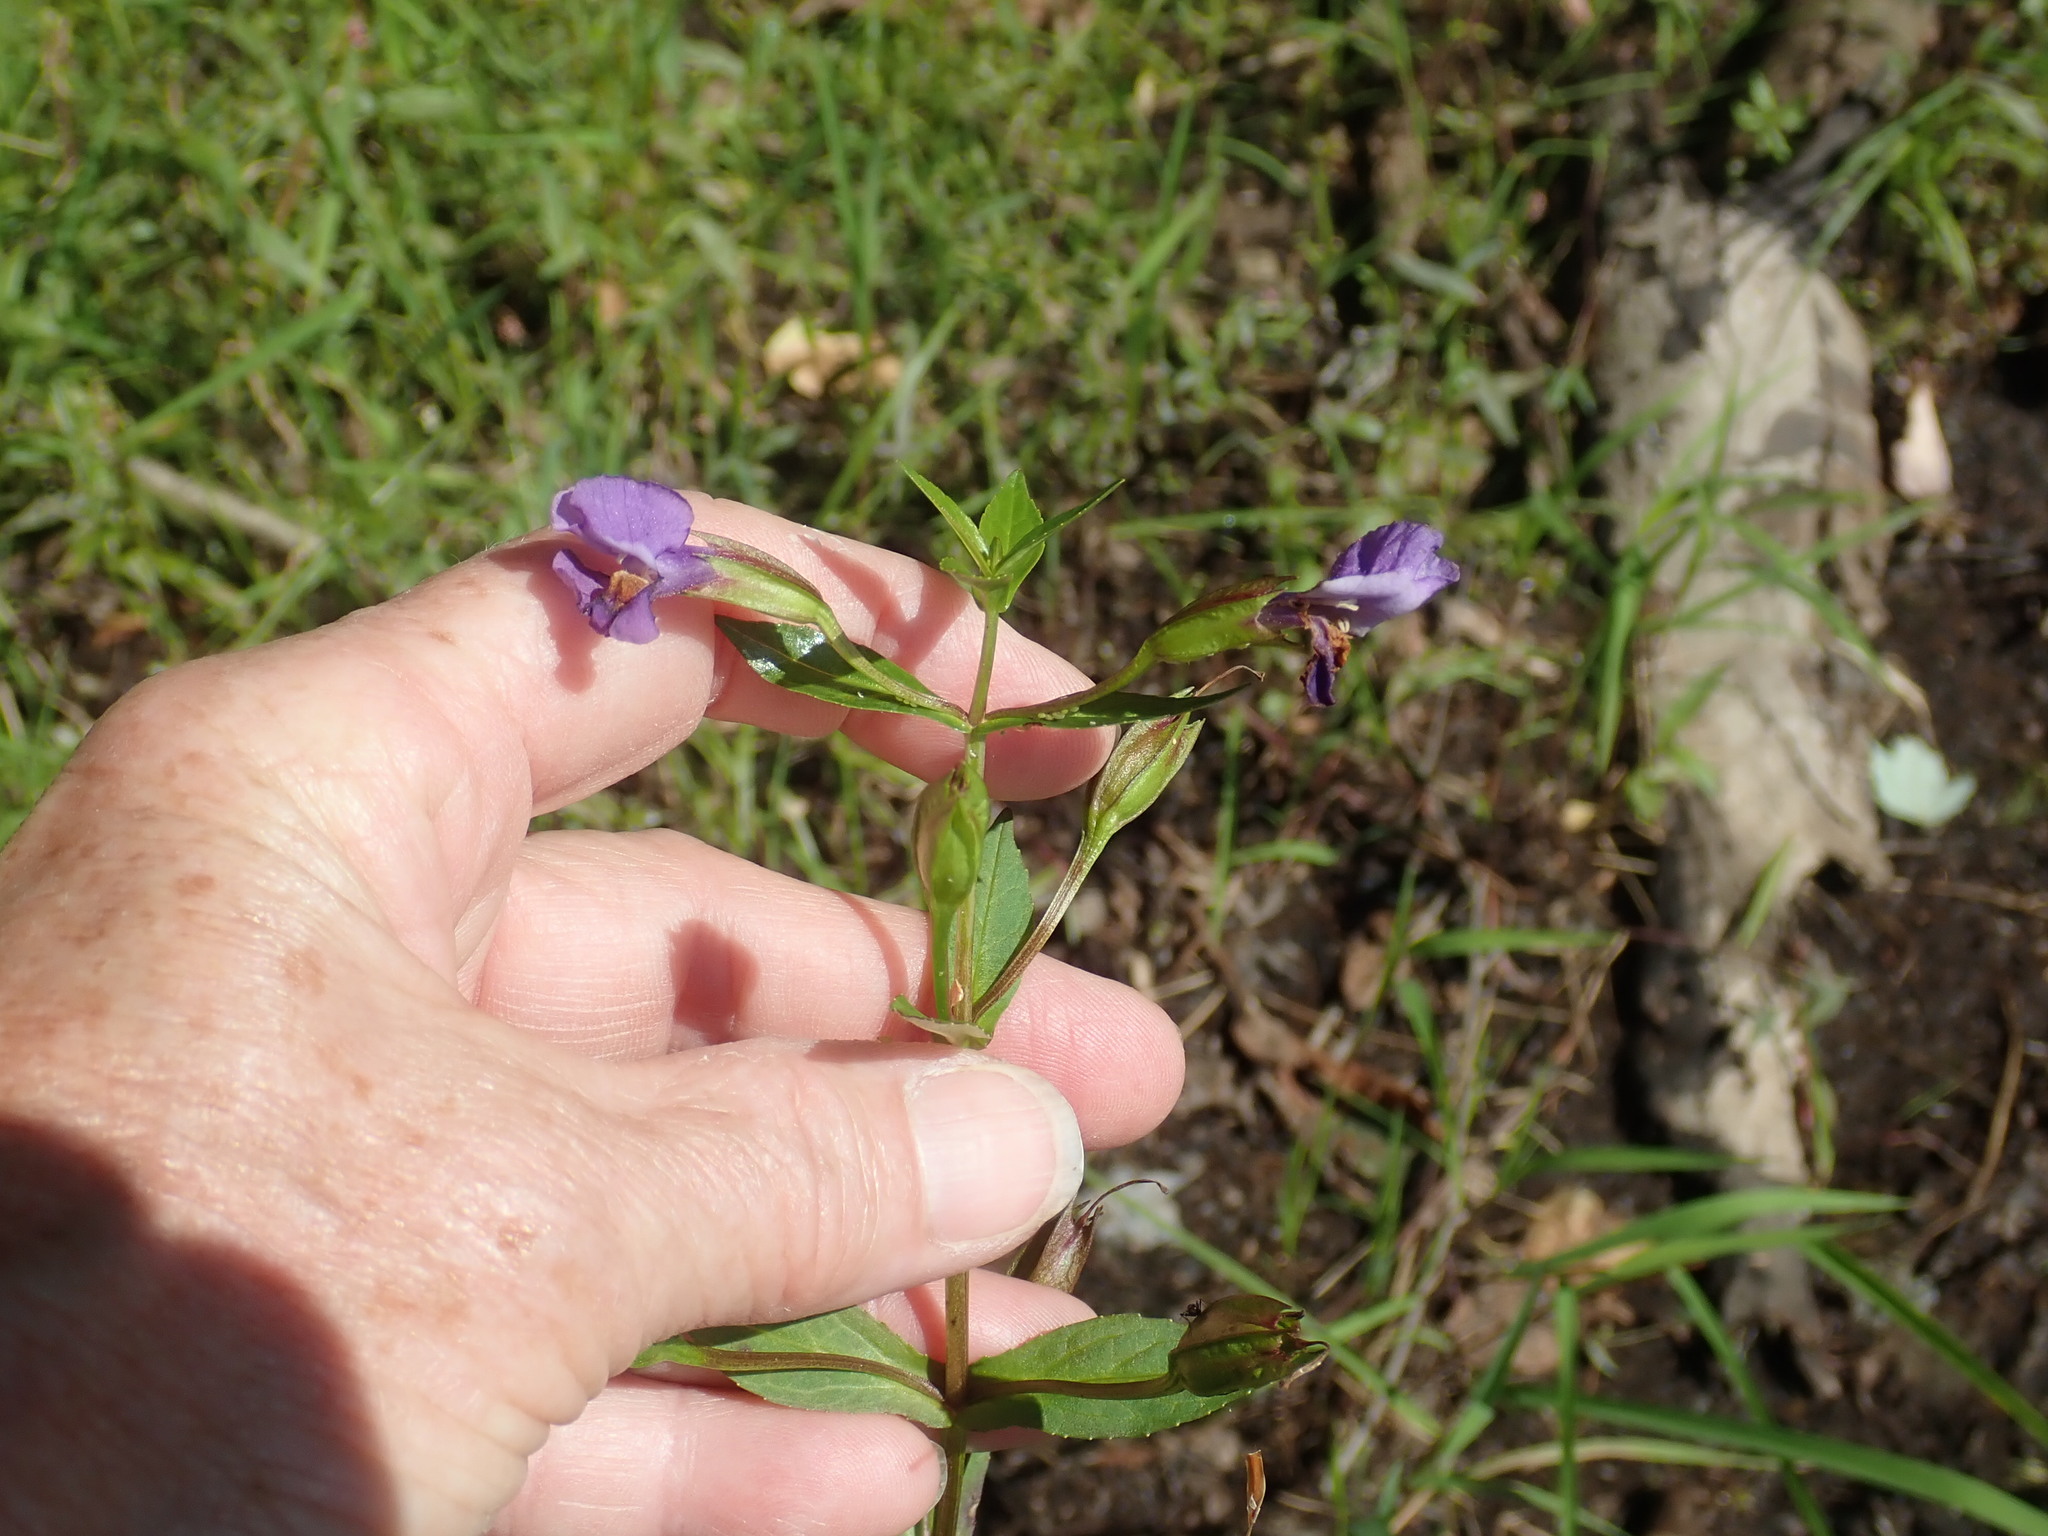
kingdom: Plantae
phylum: Tracheophyta
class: Magnoliopsida
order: Lamiales
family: Phrymaceae
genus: Mimulus
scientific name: Mimulus ringens
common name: Allegheny monkeyflower
